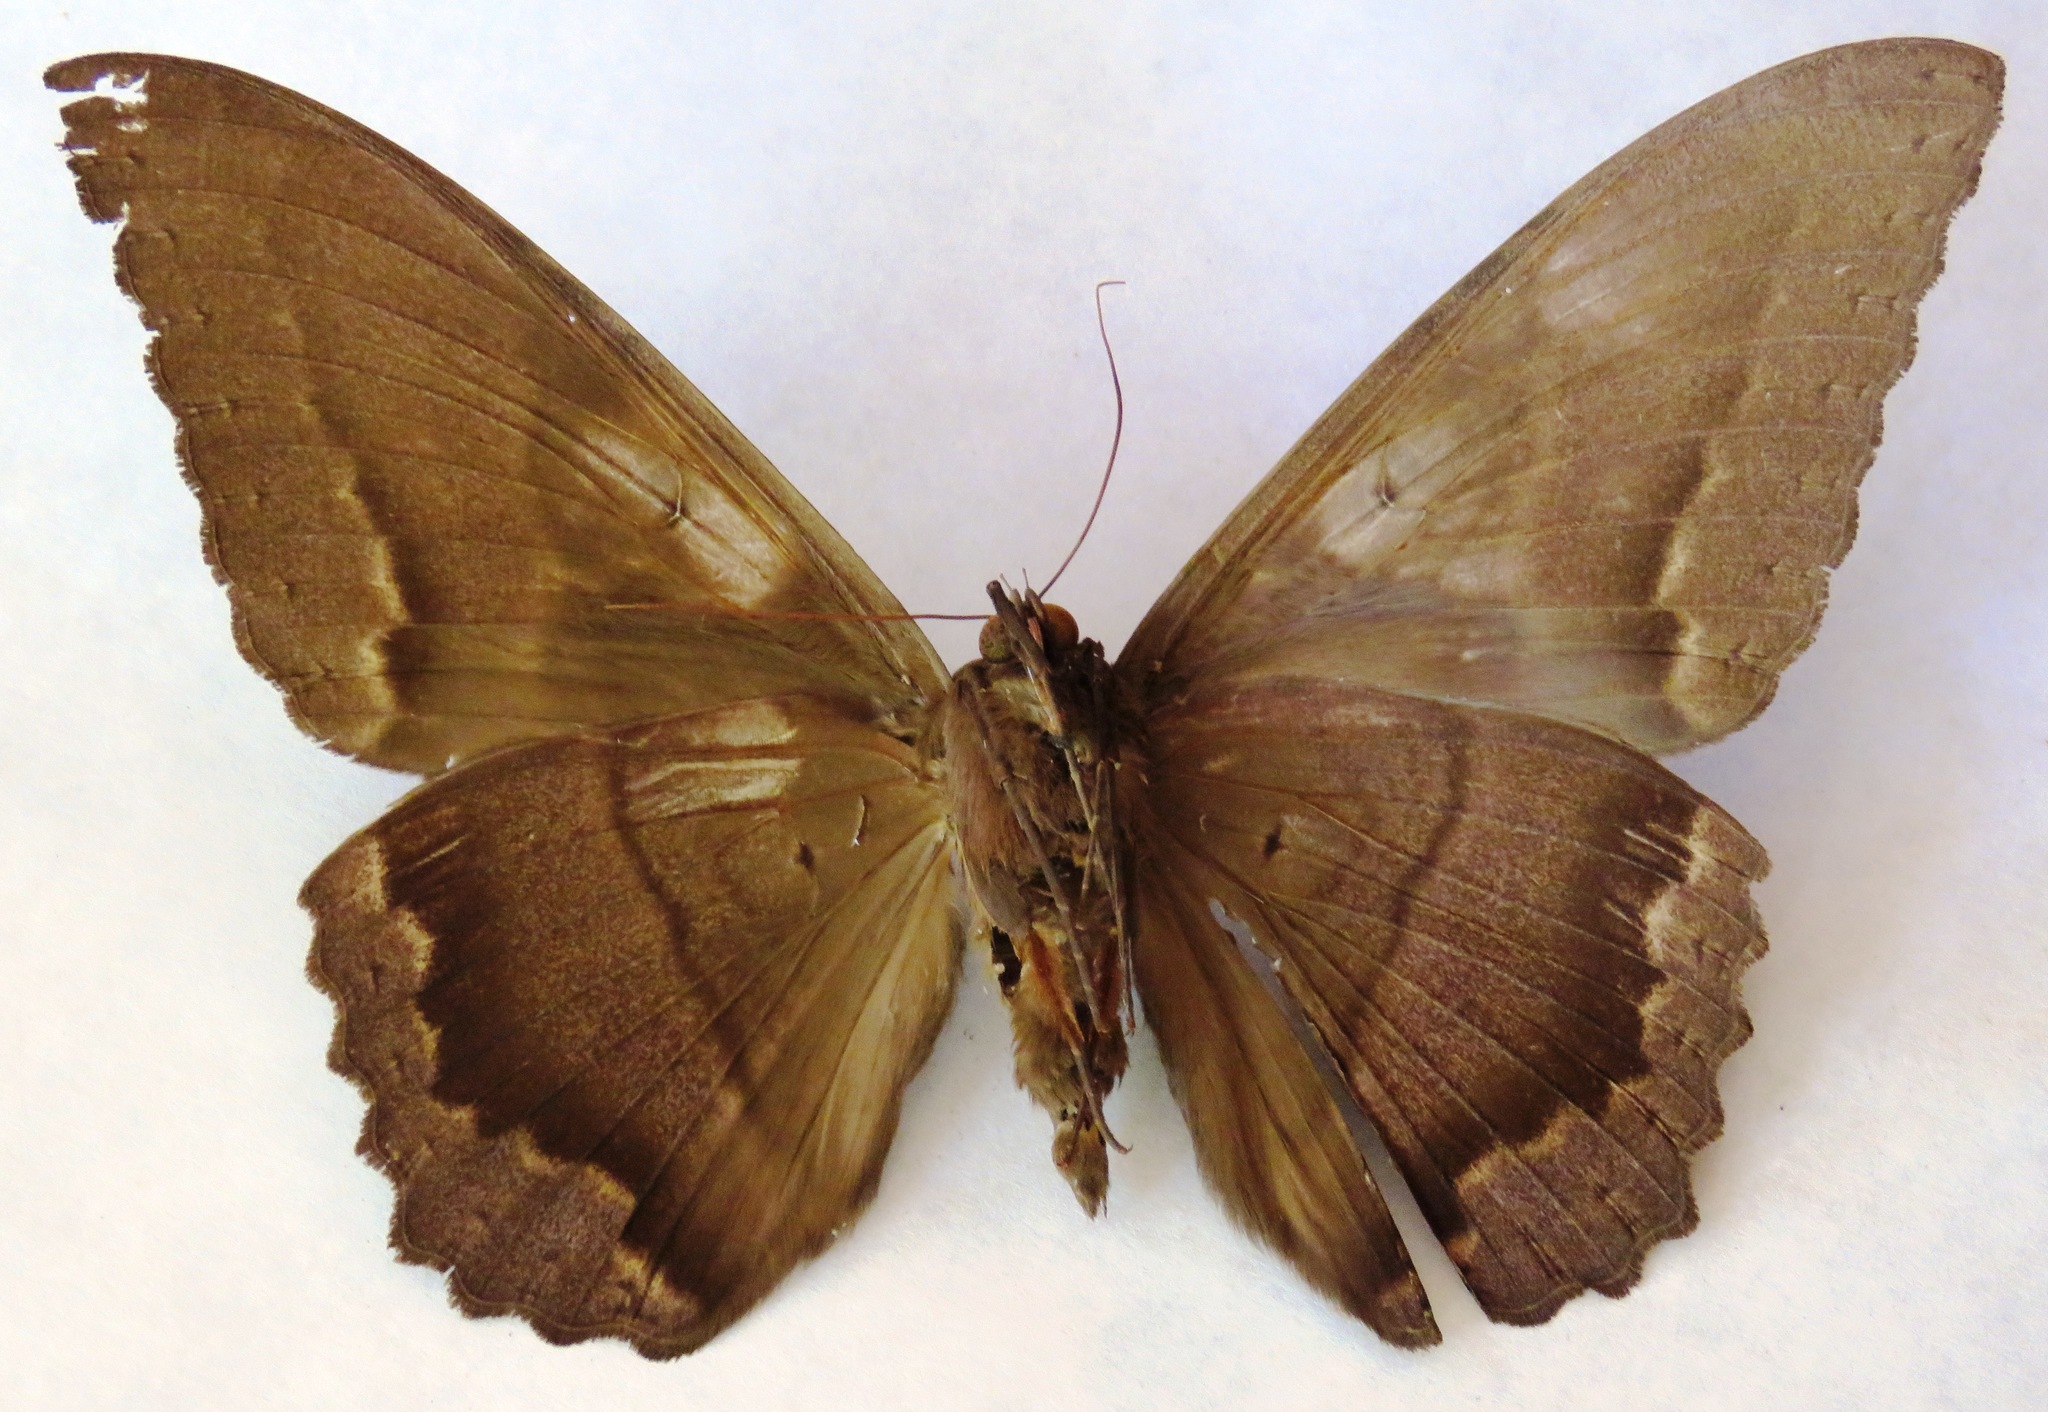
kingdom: Animalia
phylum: Arthropoda
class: Insecta
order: Lepidoptera
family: Erebidae
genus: Ascalapha
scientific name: Ascalapha odorata
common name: Black witch
